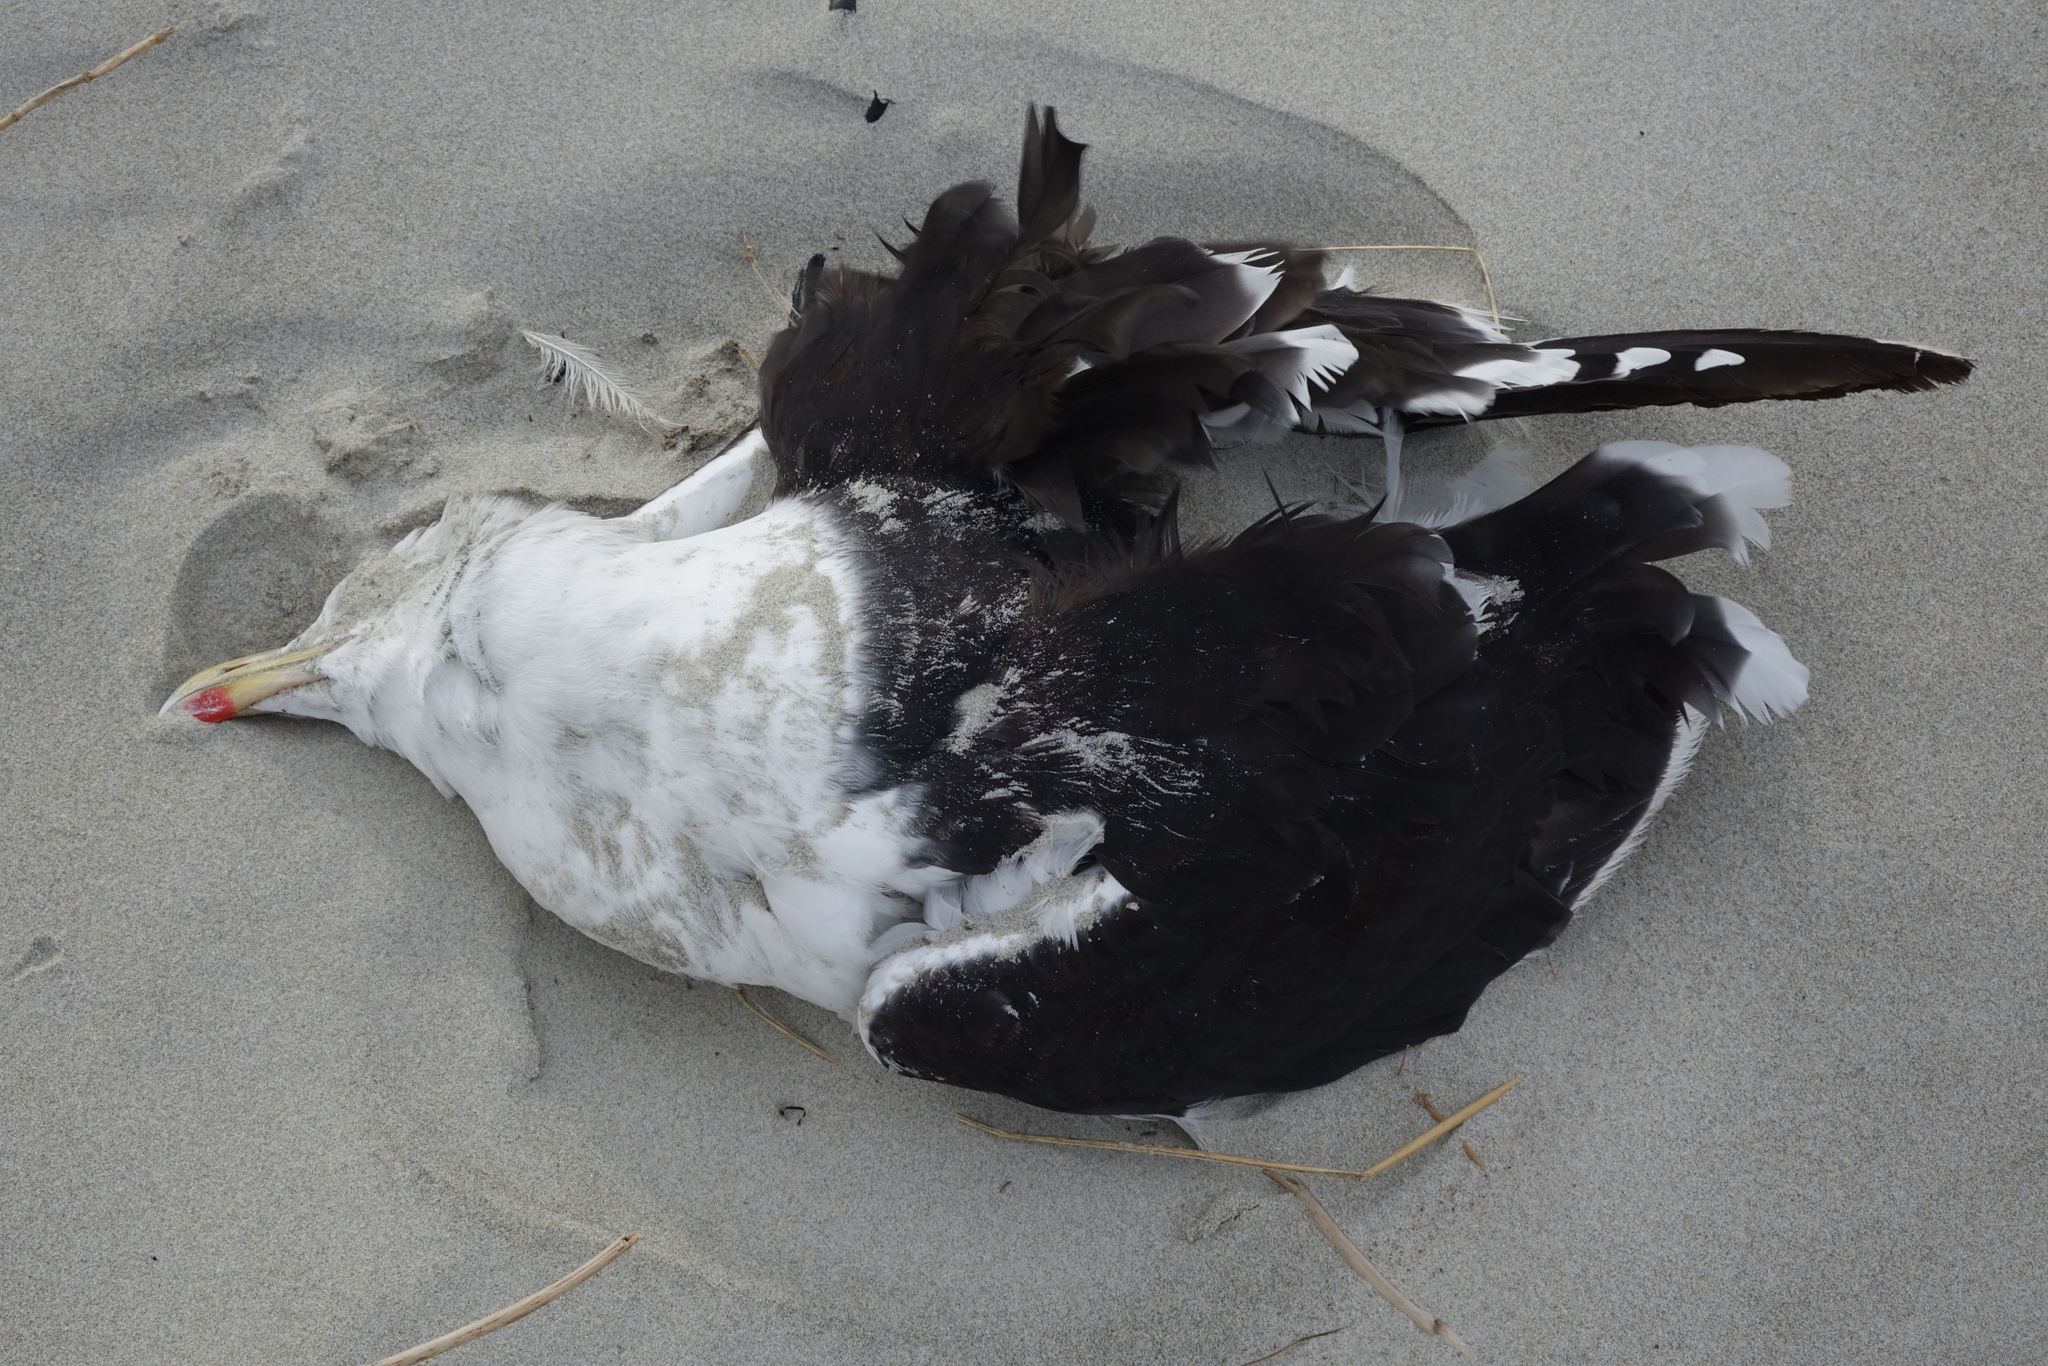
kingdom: Animalia
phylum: Chordata
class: Aves
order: Charadriiformes
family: Laridae
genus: Larus
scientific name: Larus dominicanus
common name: Kelp gull
